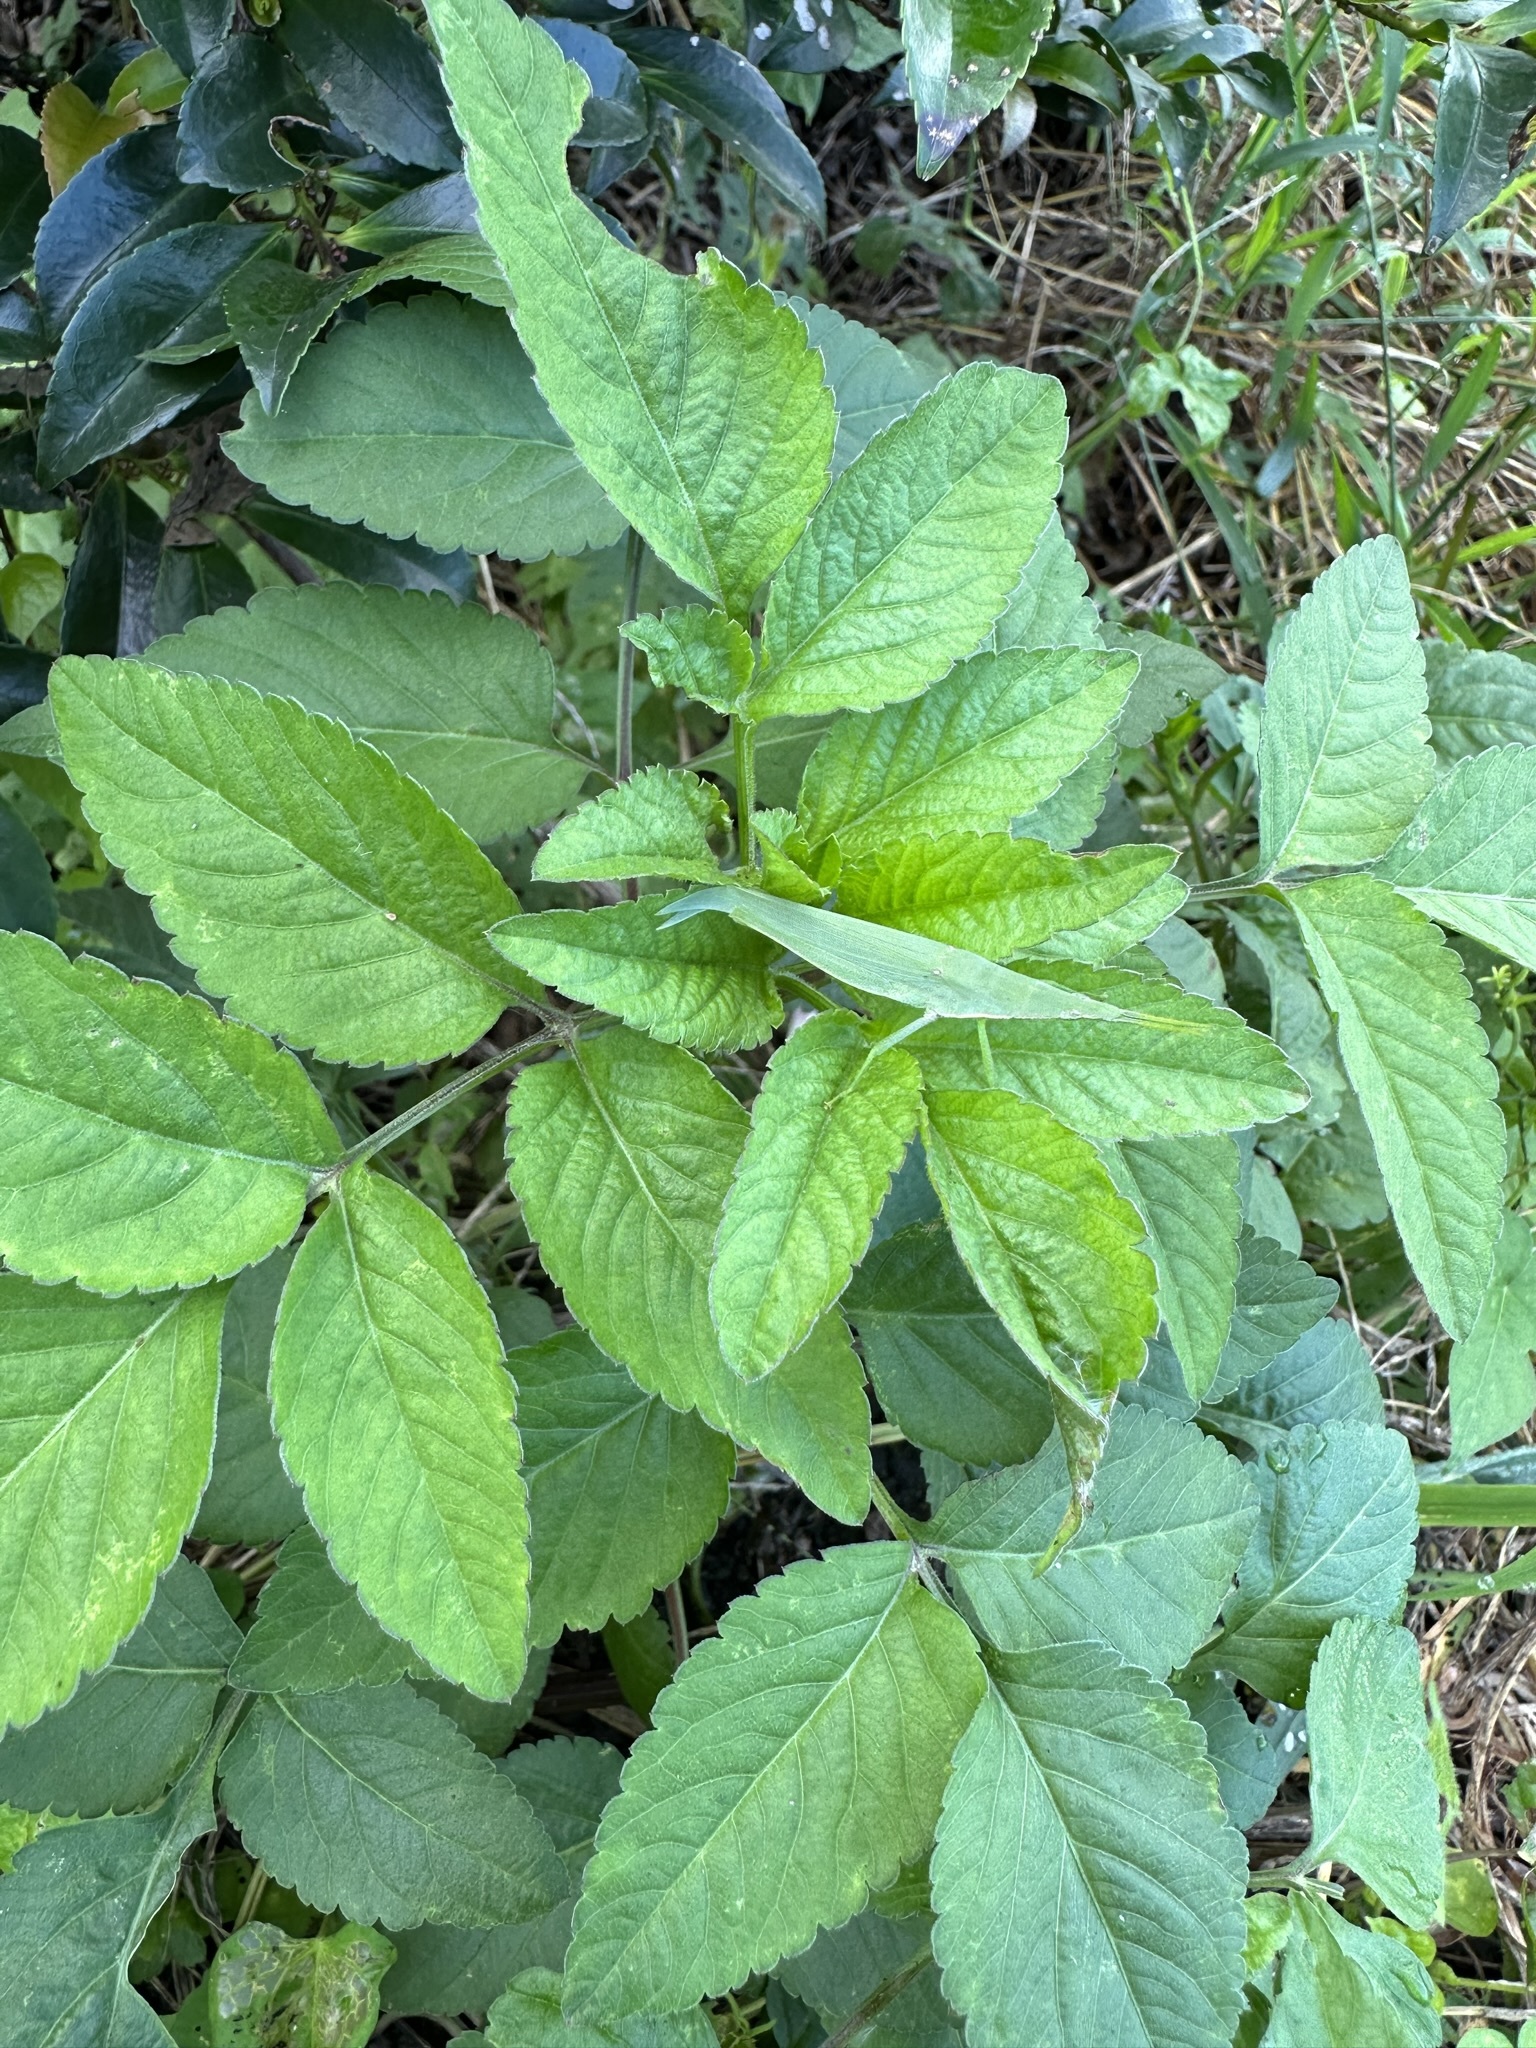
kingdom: Animalia
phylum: Arthropoda
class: Insecta
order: Orthoptera
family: Pyrgomorphidae
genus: Atractomorpha
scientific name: Atractomorpha lata
